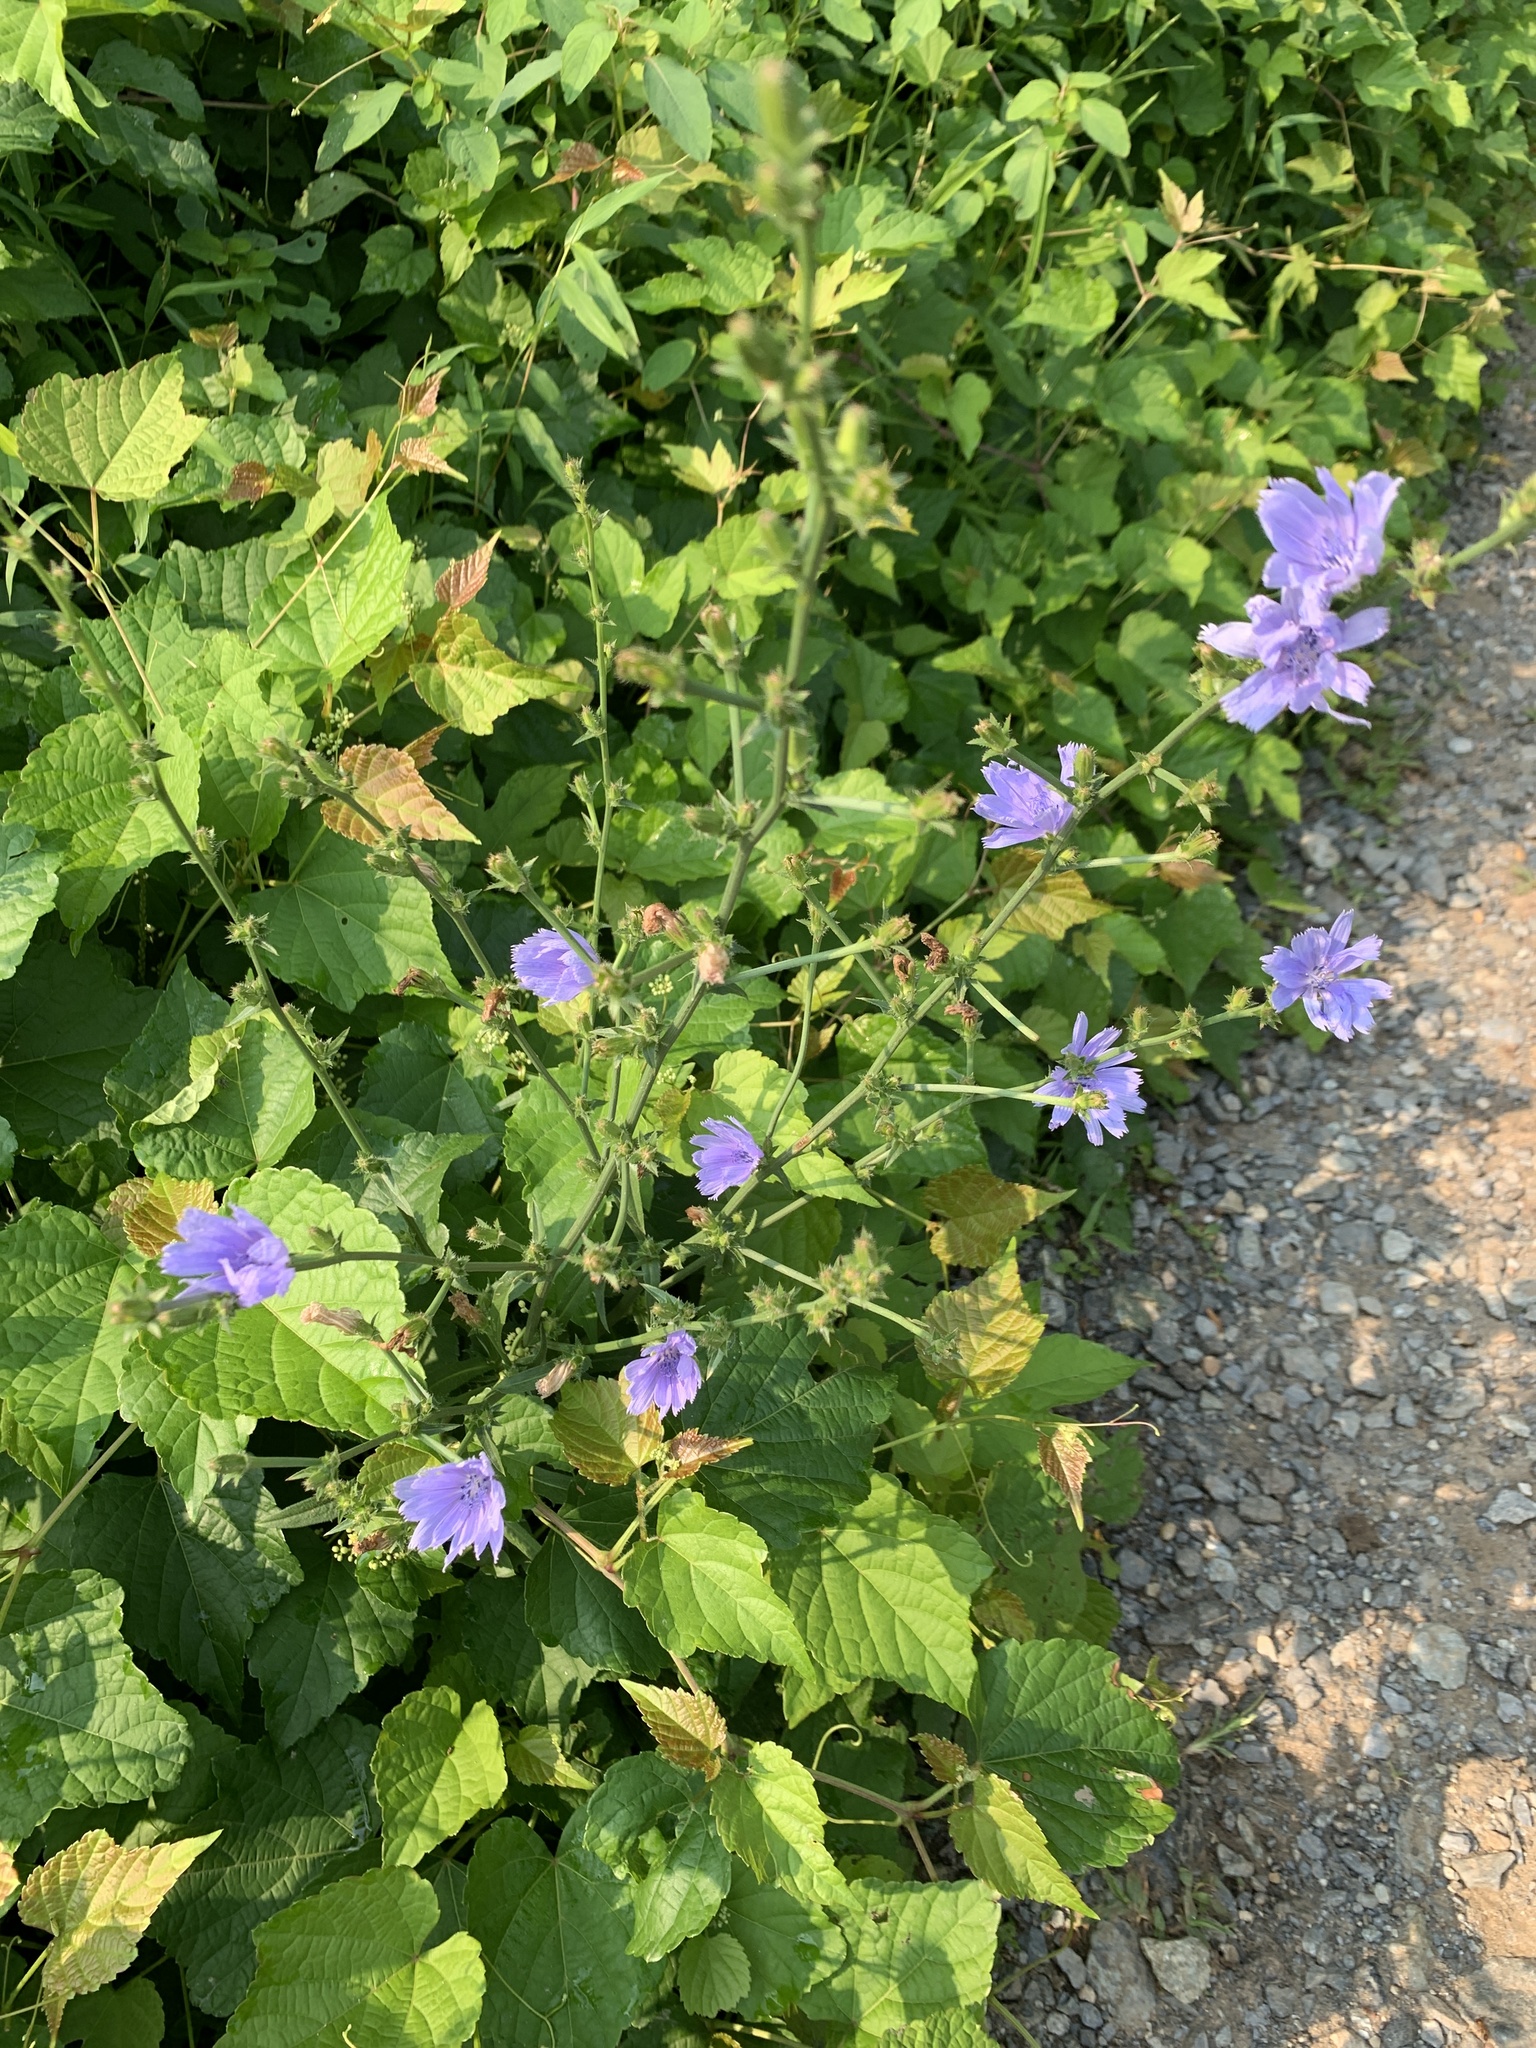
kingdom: Plantae
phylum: Tracheophyta
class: Magnoliopsida
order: Asterales
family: Asteraceae
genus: Cichorium
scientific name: Cichorium intybus
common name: Chicory
